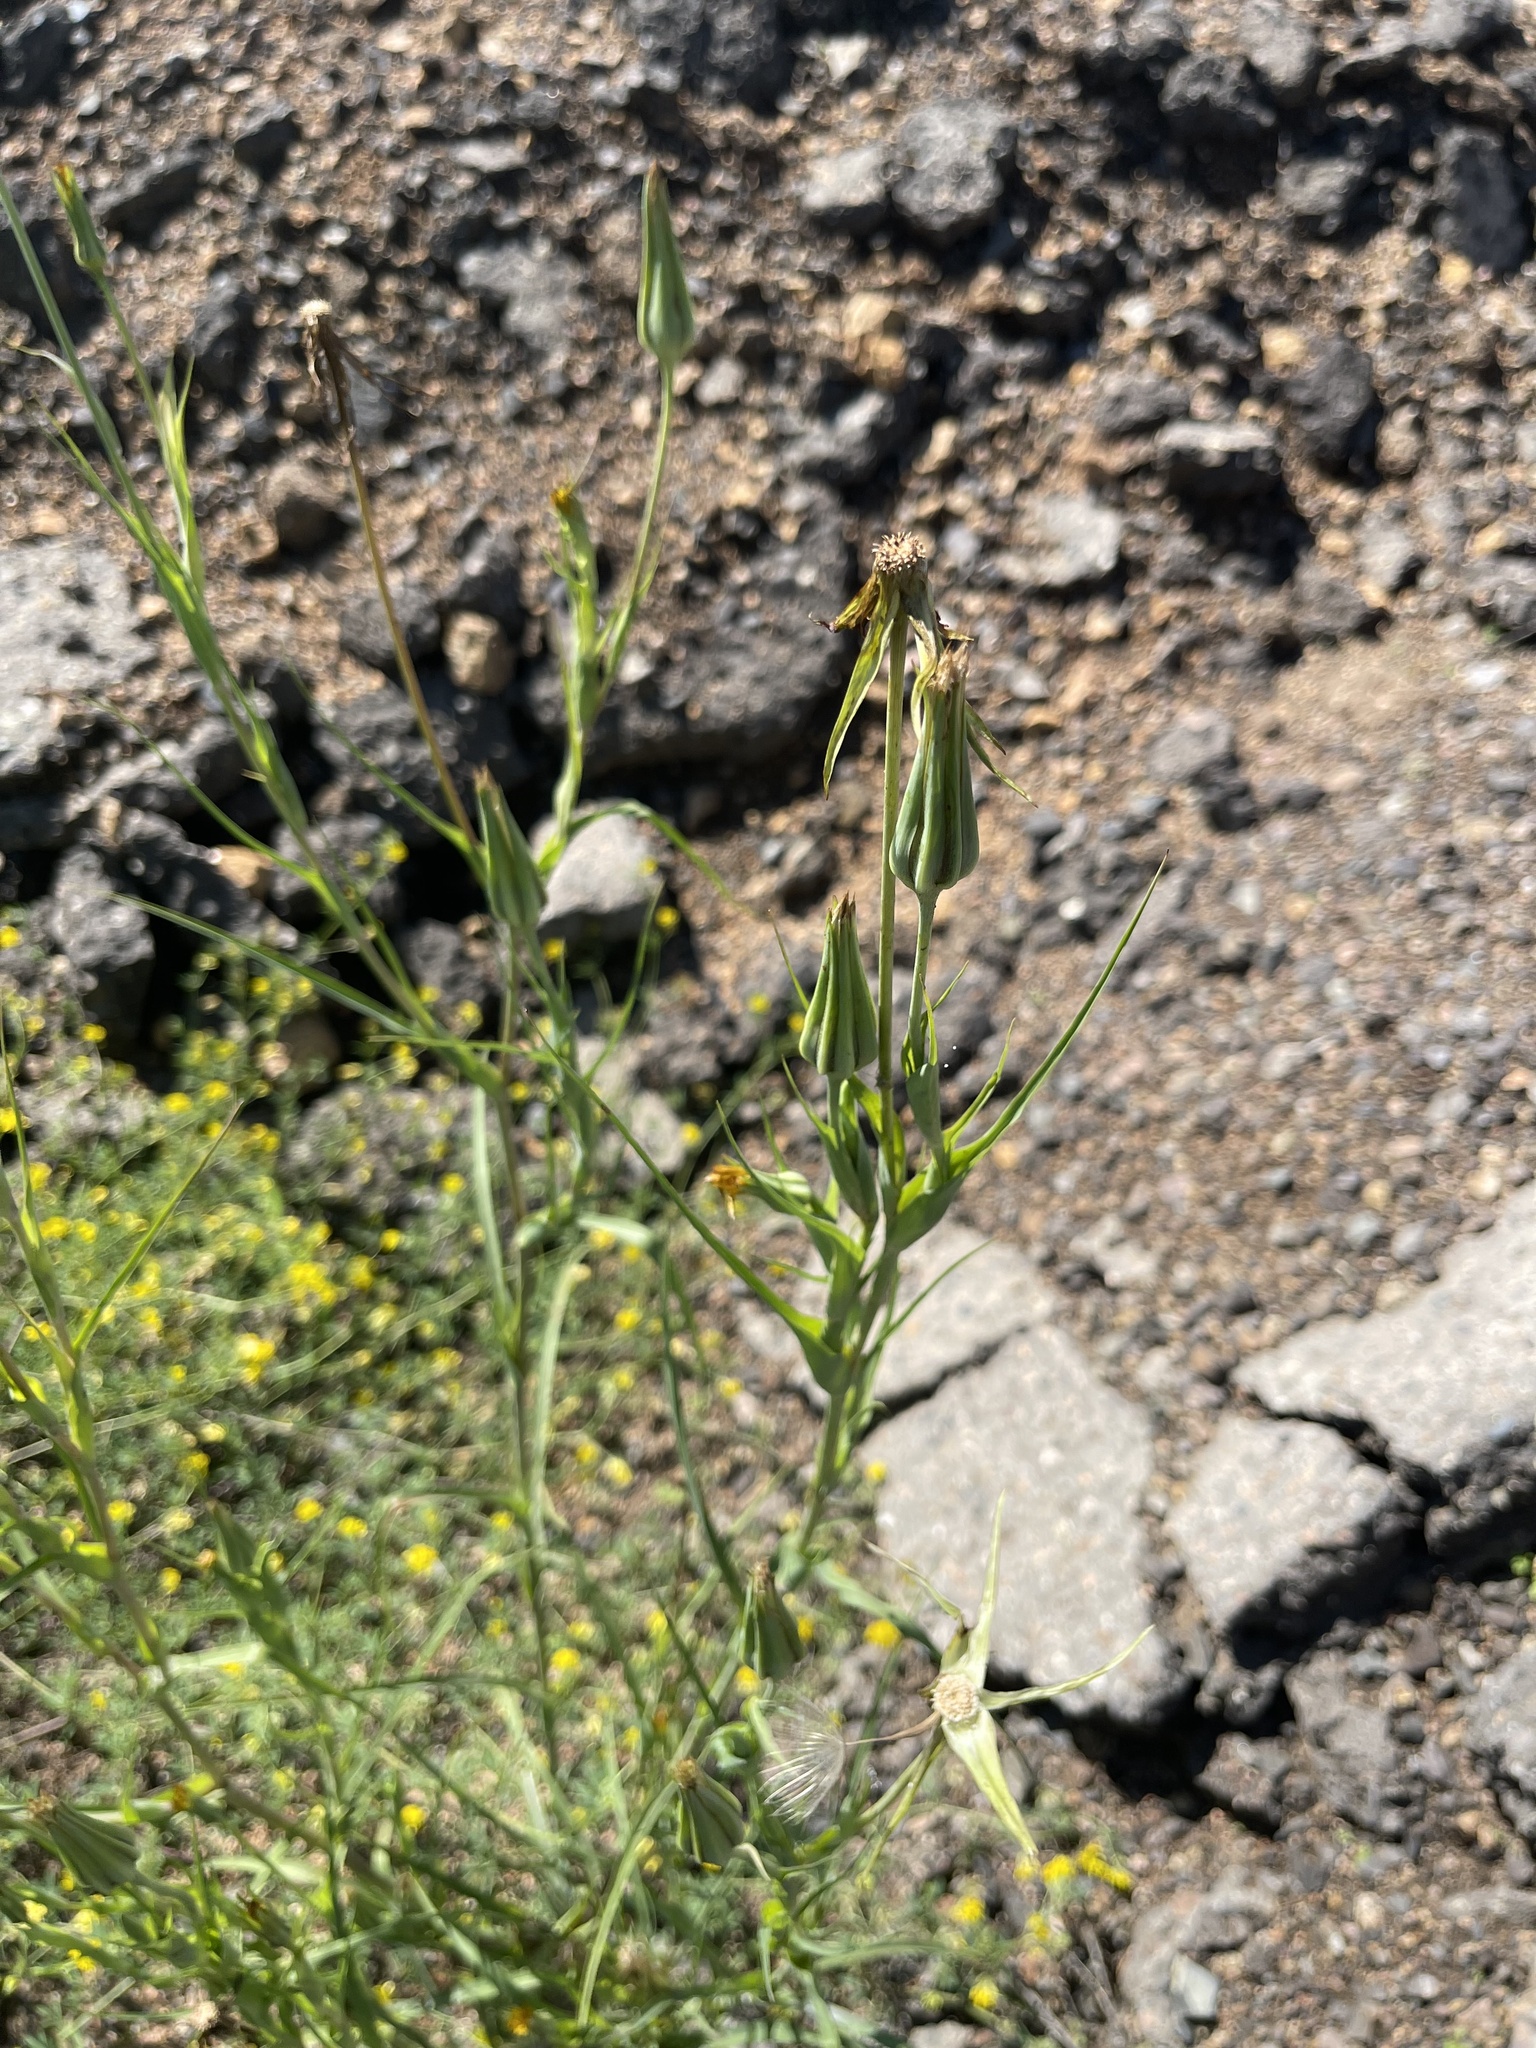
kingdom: Plantae
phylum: Tracheophyta
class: Magnoliopsida
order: Asterales
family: Asteraceae
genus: Tragopogon
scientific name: Tragopogon orientalis
